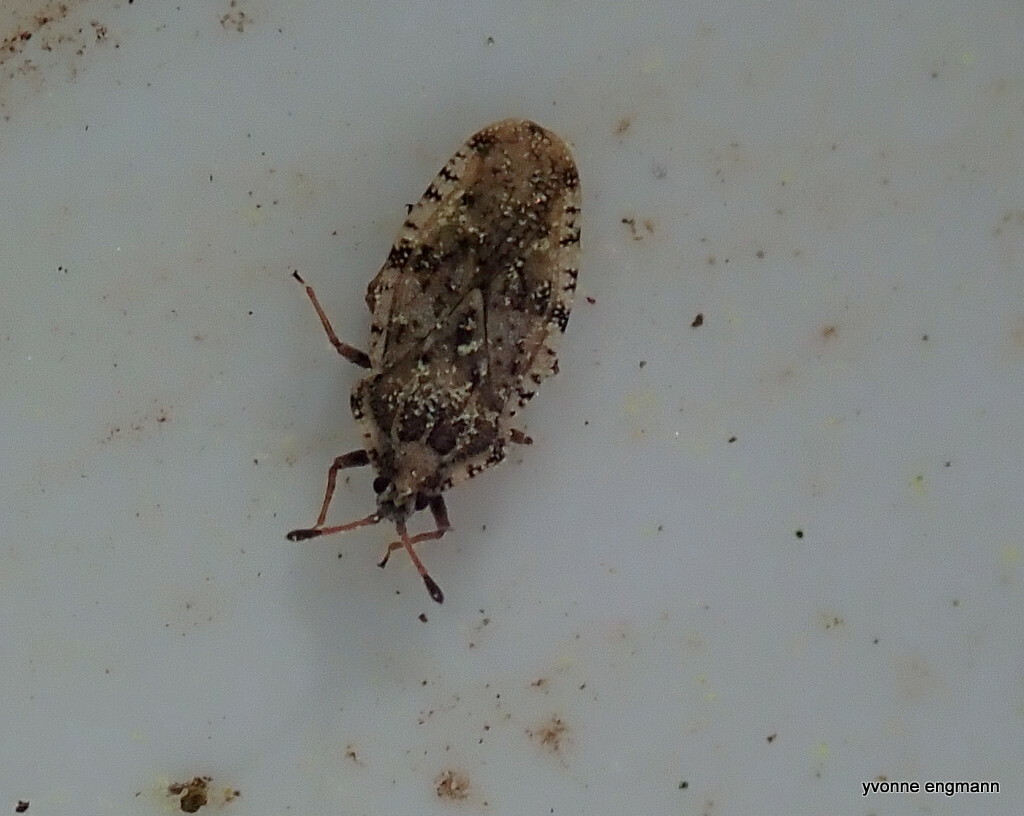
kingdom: Animalia
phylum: Arthropoda
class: Insecta
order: Hemiptera
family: Tingidae
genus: Tingis
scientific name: Tingis cardui
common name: Spear thistle lacebug
